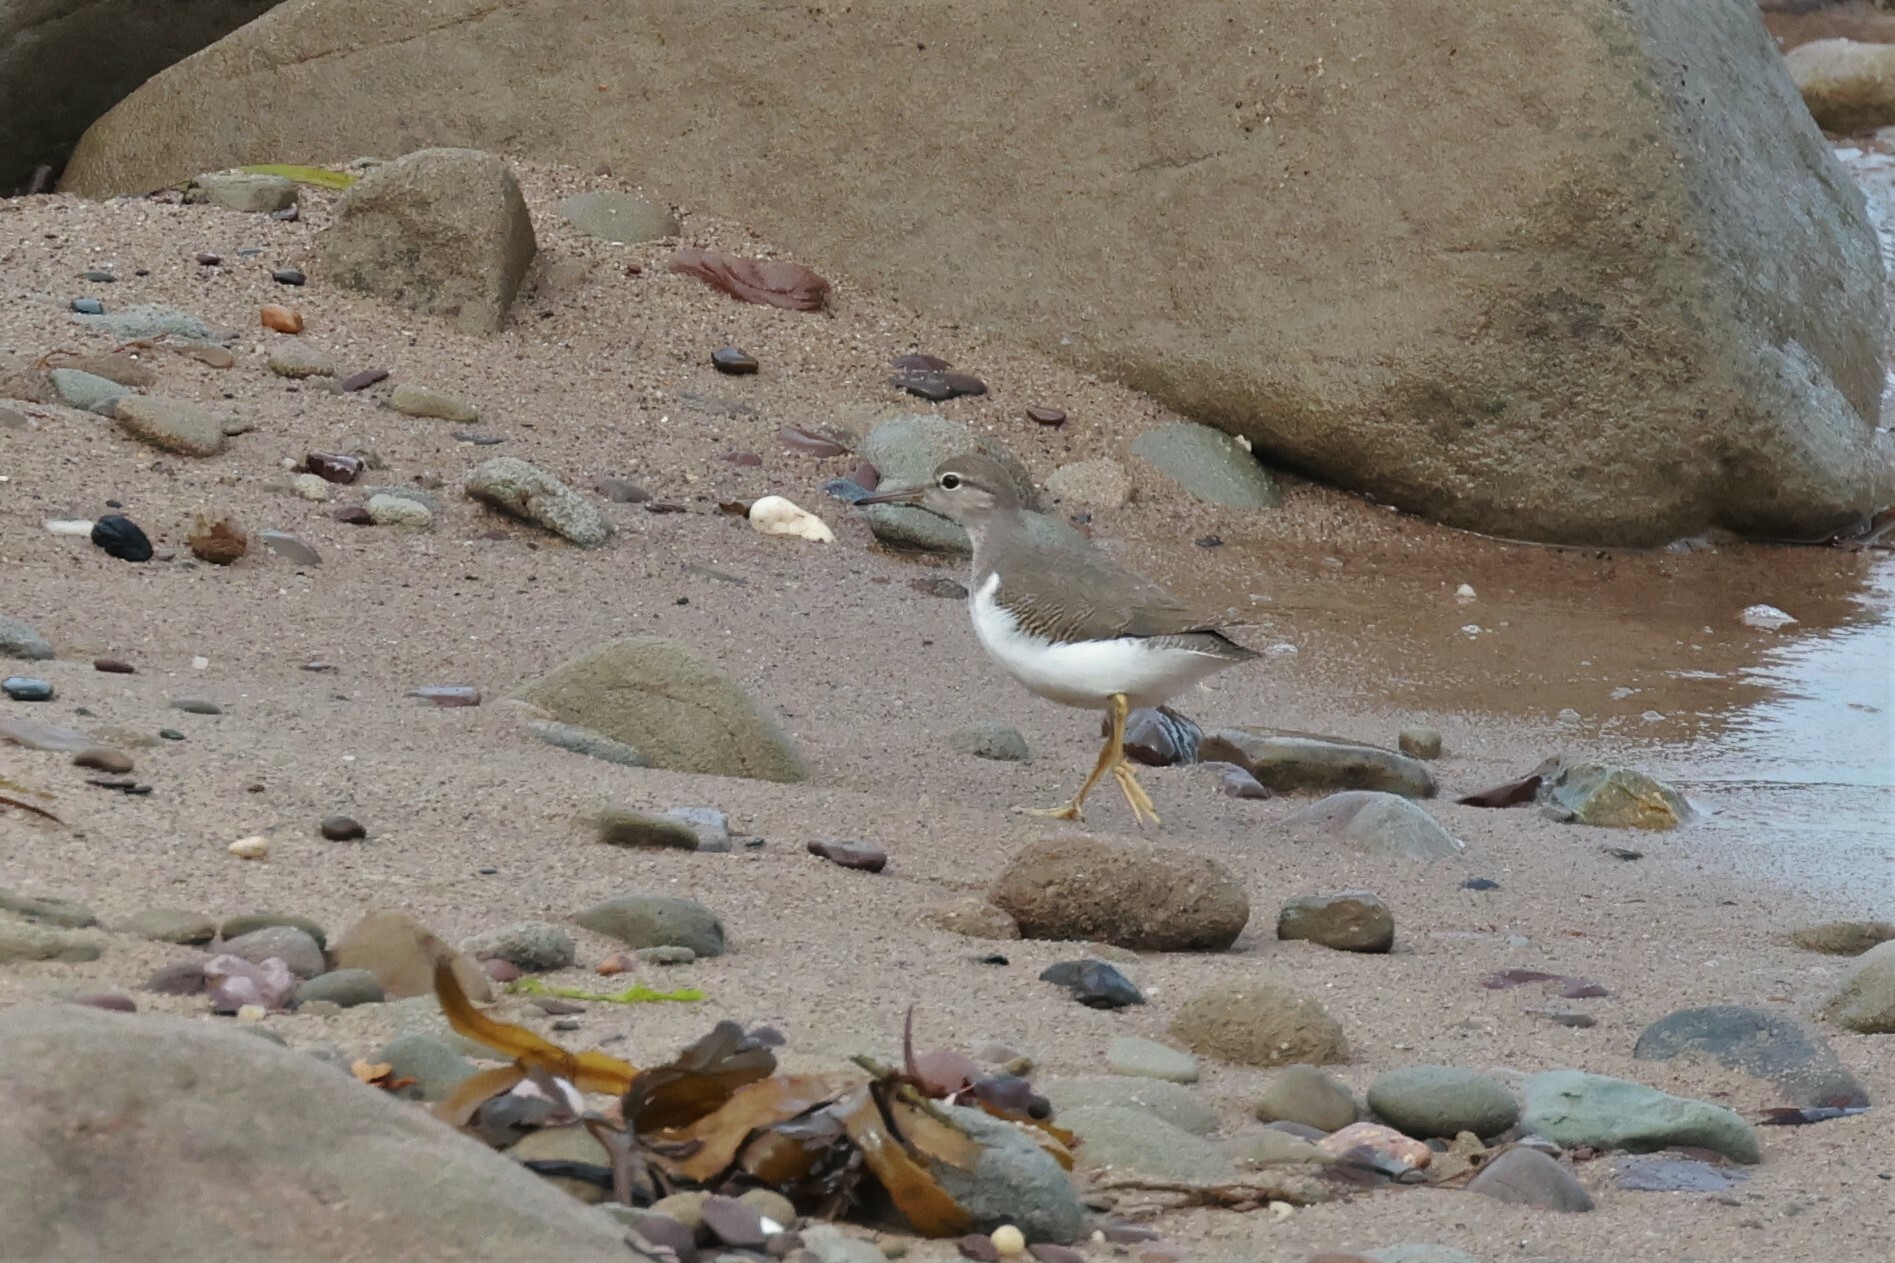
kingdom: Animalia
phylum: Chordata
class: Aves
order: Charadriiformes
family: Scolopacidae
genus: Actitis
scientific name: Actitis macularius
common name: Spotted sandpiper
